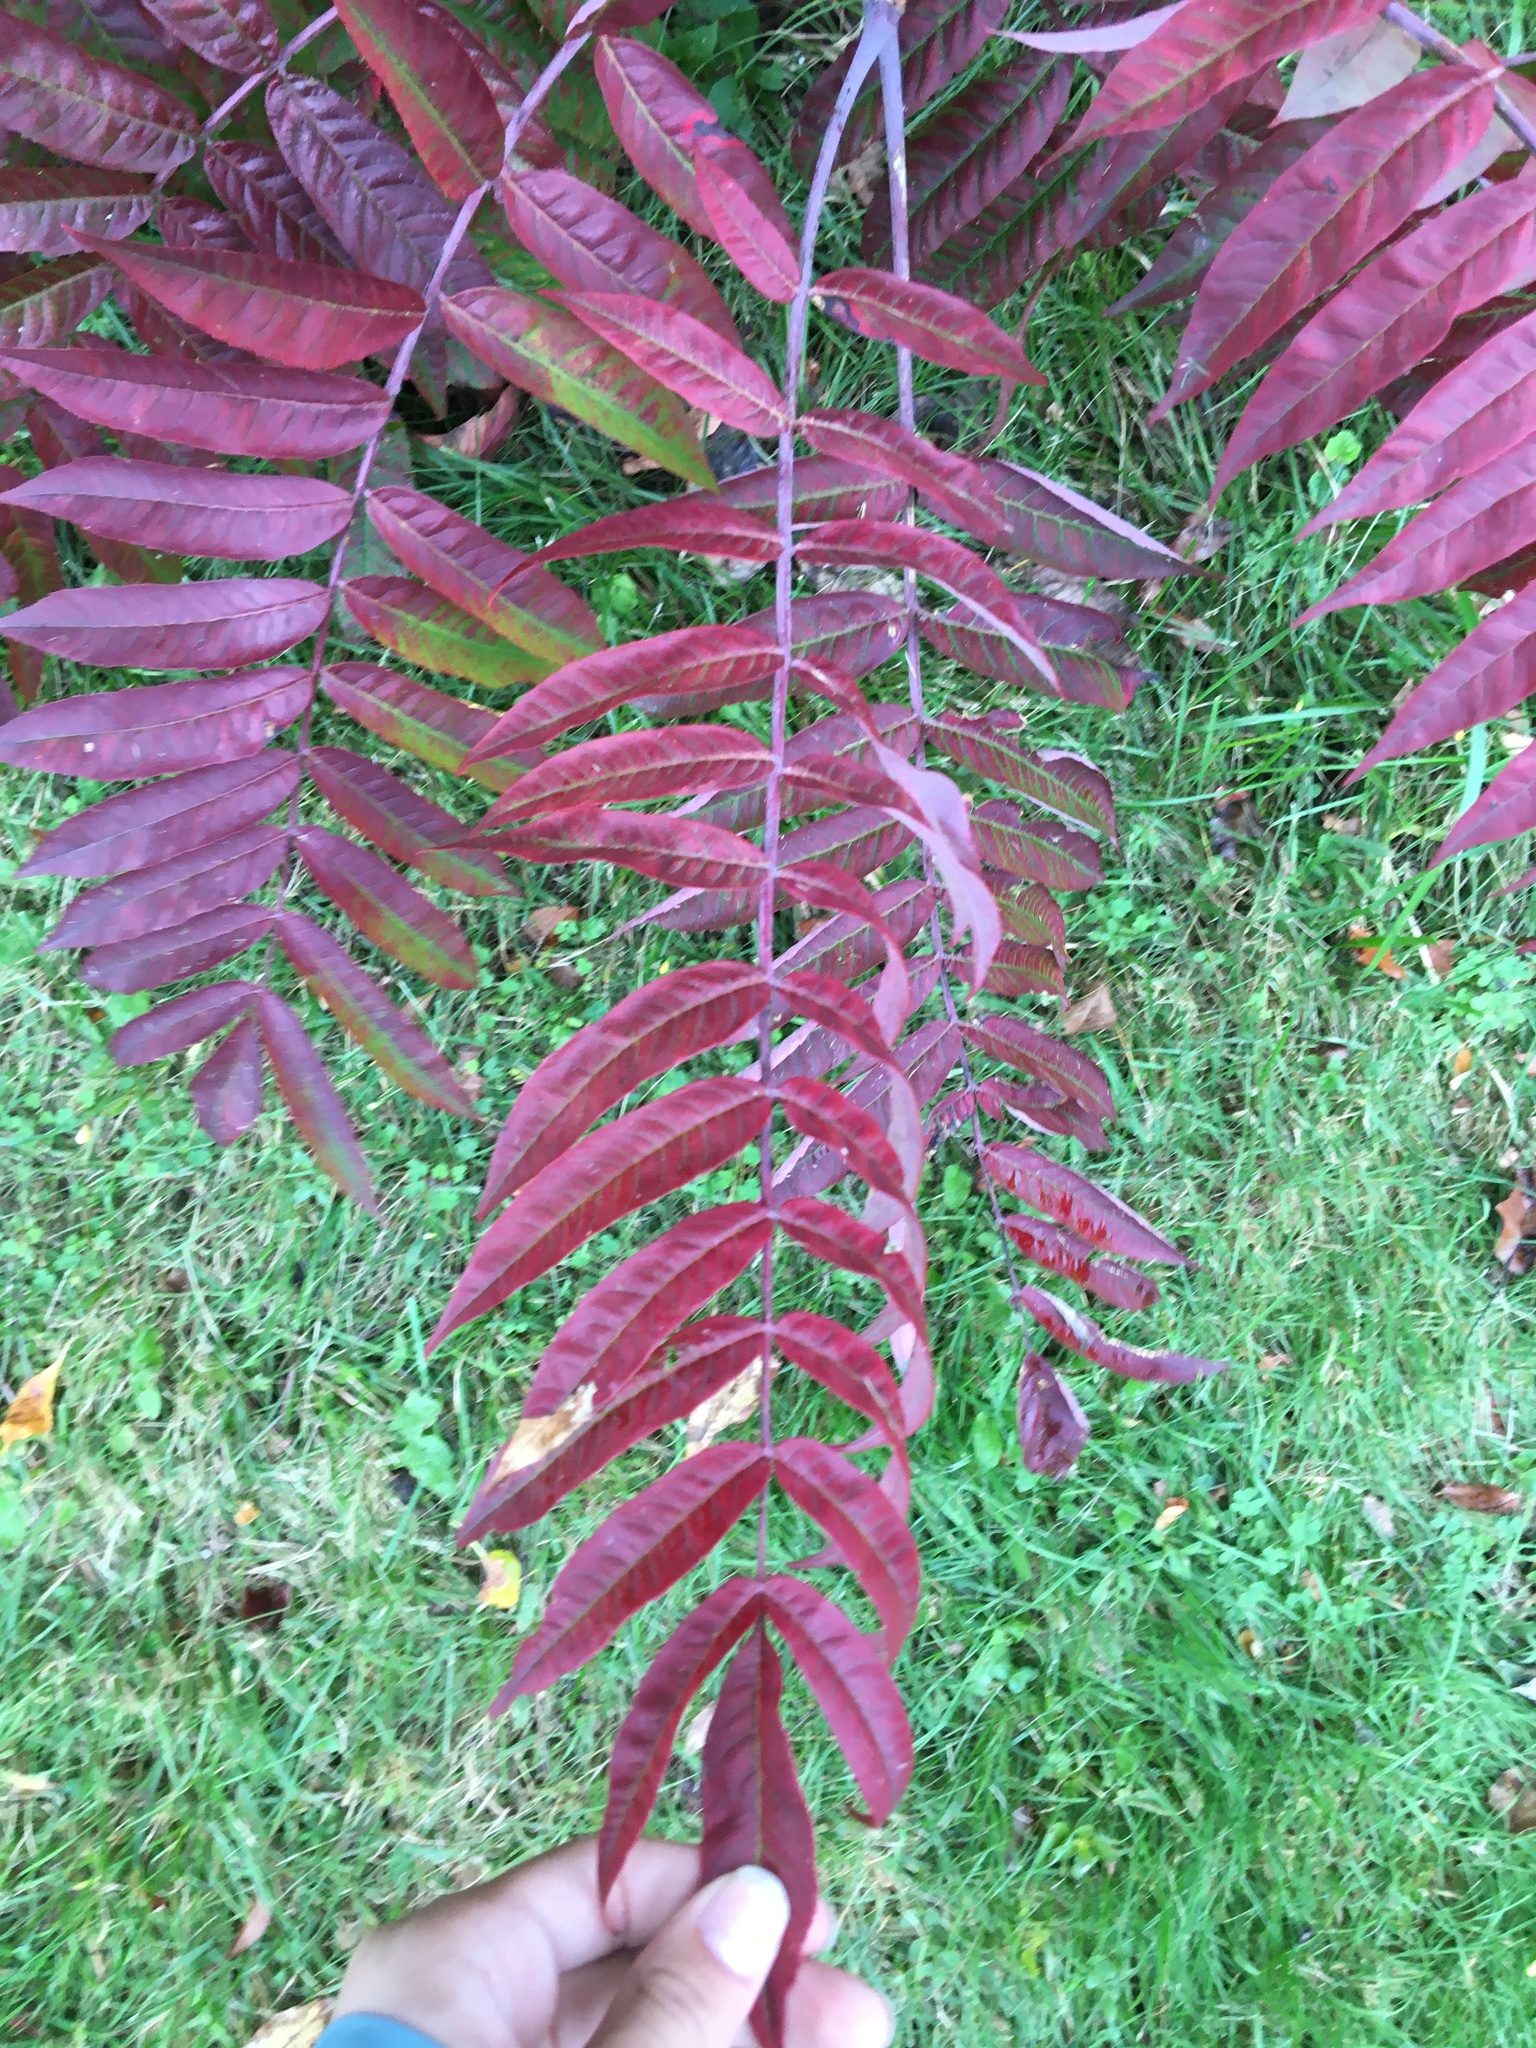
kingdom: Plantae
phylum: Tracheophyta
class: Magnoliopsida
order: Sapindales
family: Anacardiaceae
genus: Rhus
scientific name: Rhus glabra
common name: Scarlet sumac
